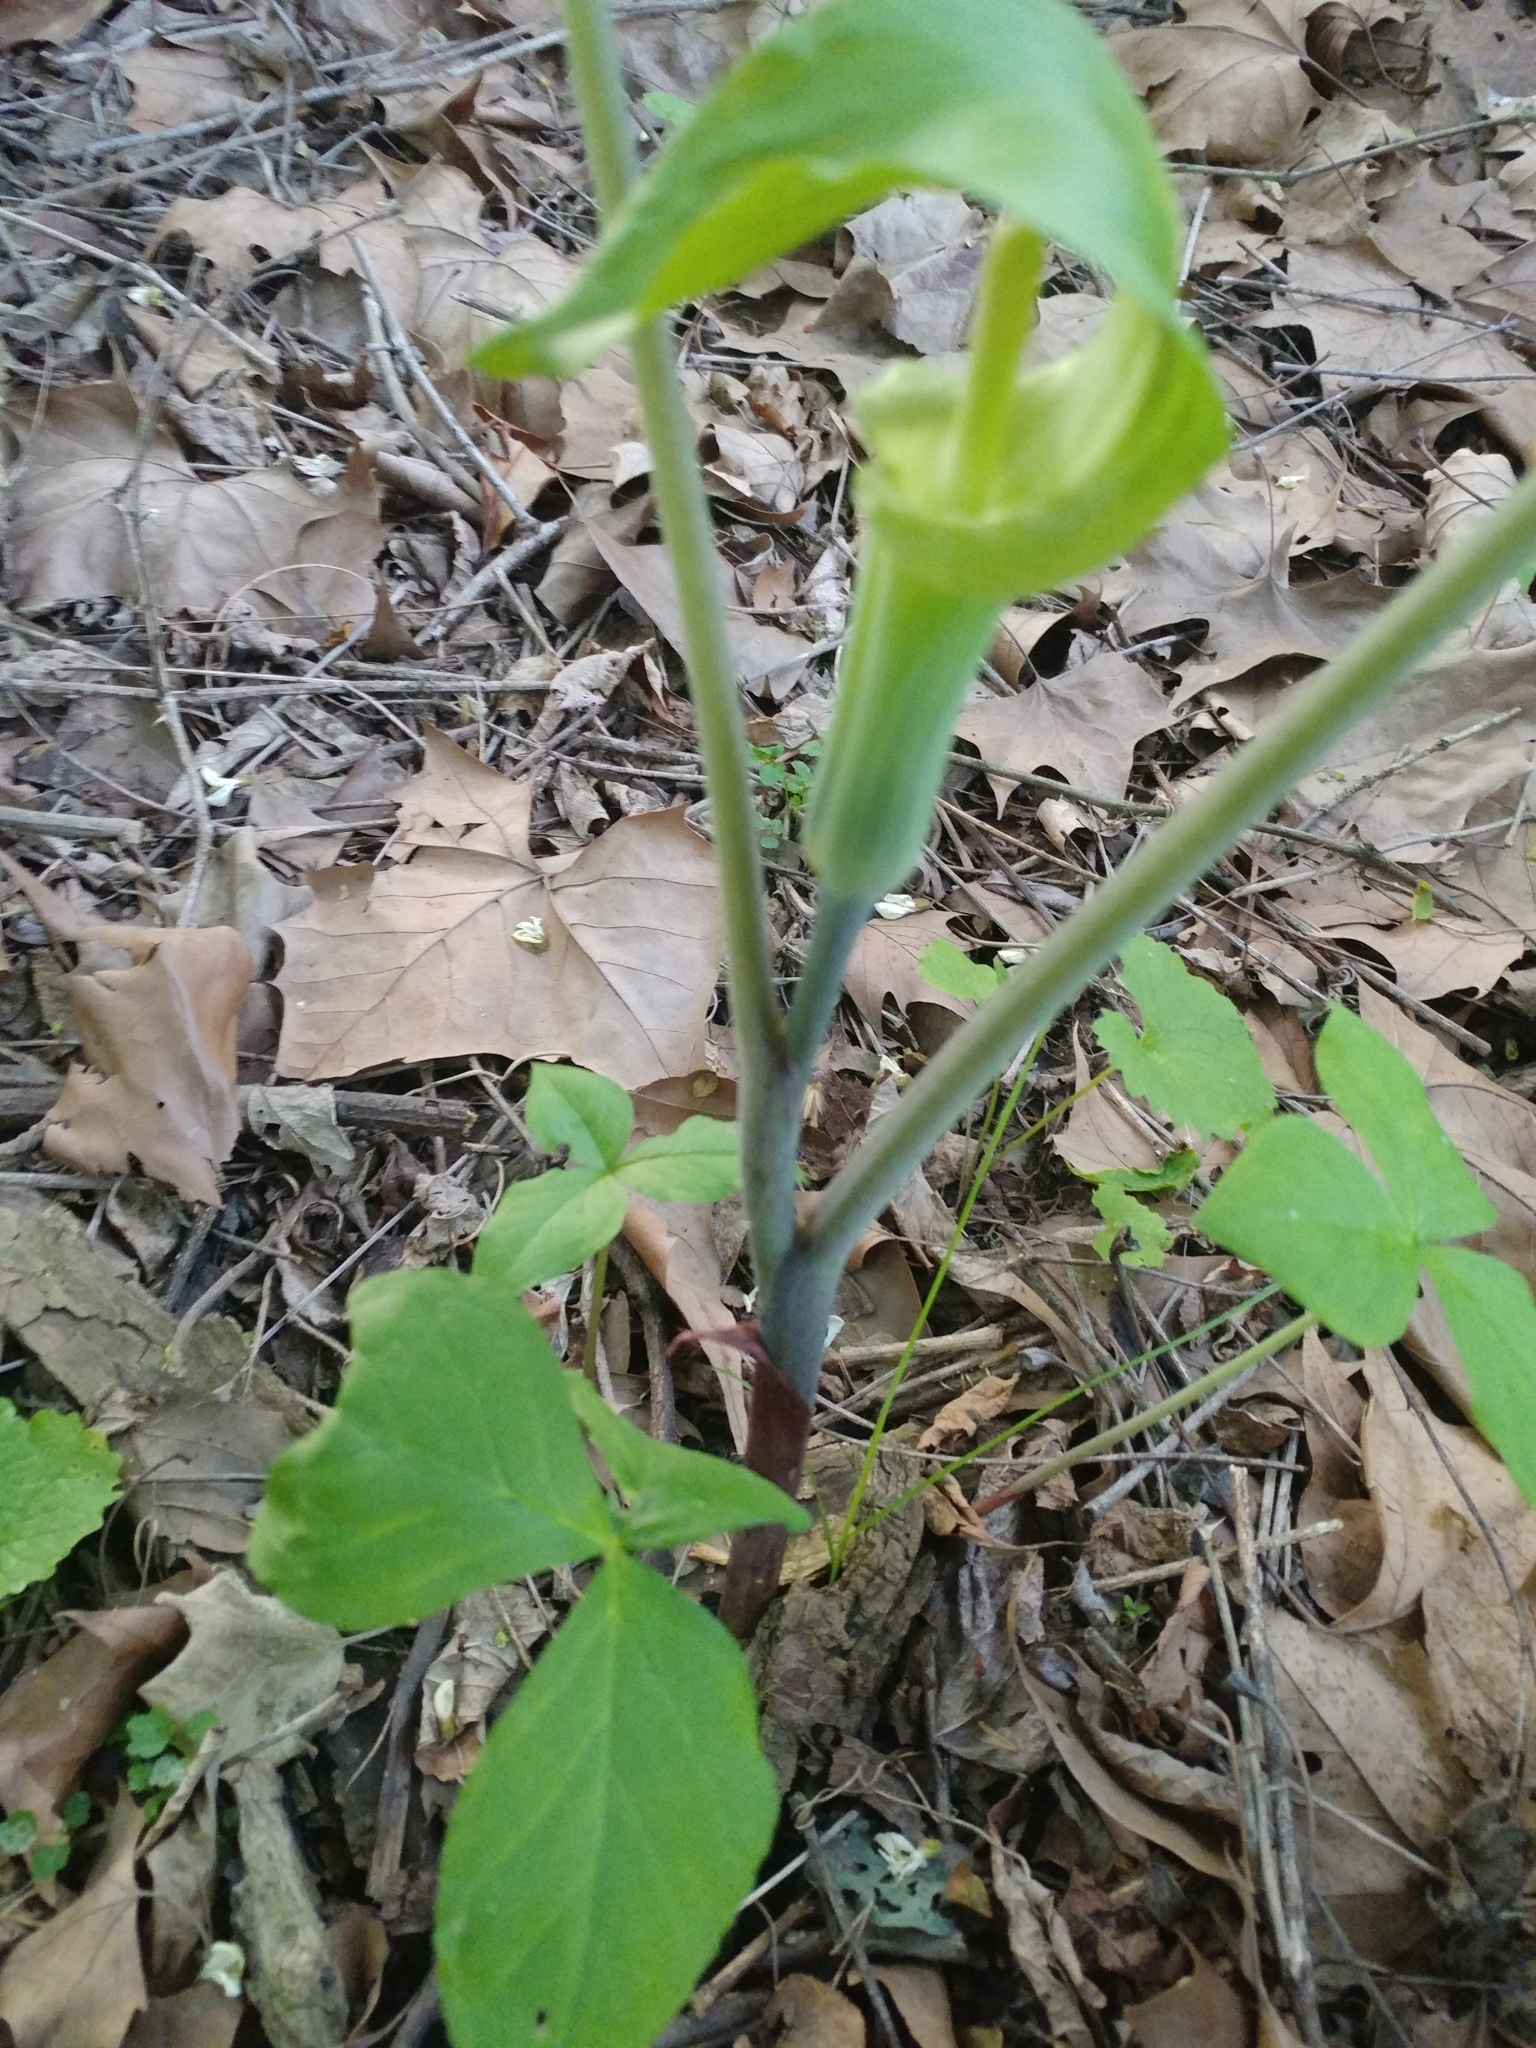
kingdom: Plantae
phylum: Tracheophyta
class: Liliopsida
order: Alismatales
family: Araceae
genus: Arisaema
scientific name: Arisaema triphyllum
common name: Jack-in-the-pulpit
